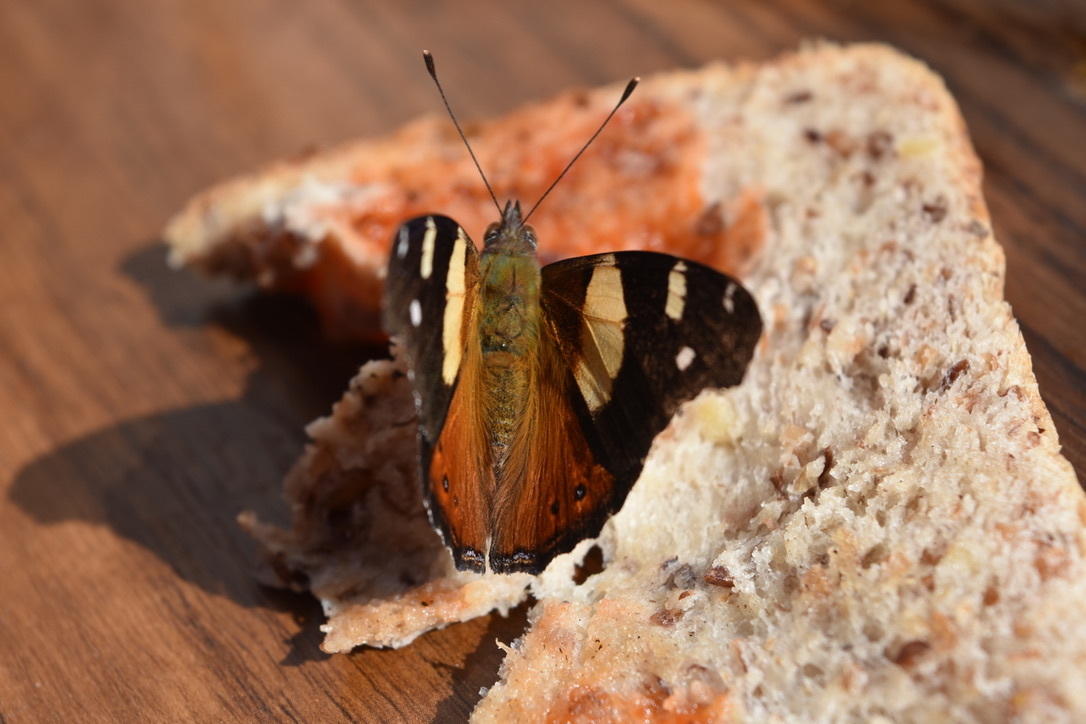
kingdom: Animalia
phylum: Arthropoda
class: Insecta
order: Lepidoptera
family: Nymphalidae
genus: Vanessa
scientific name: Vanessa itea
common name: Yellow admiral
